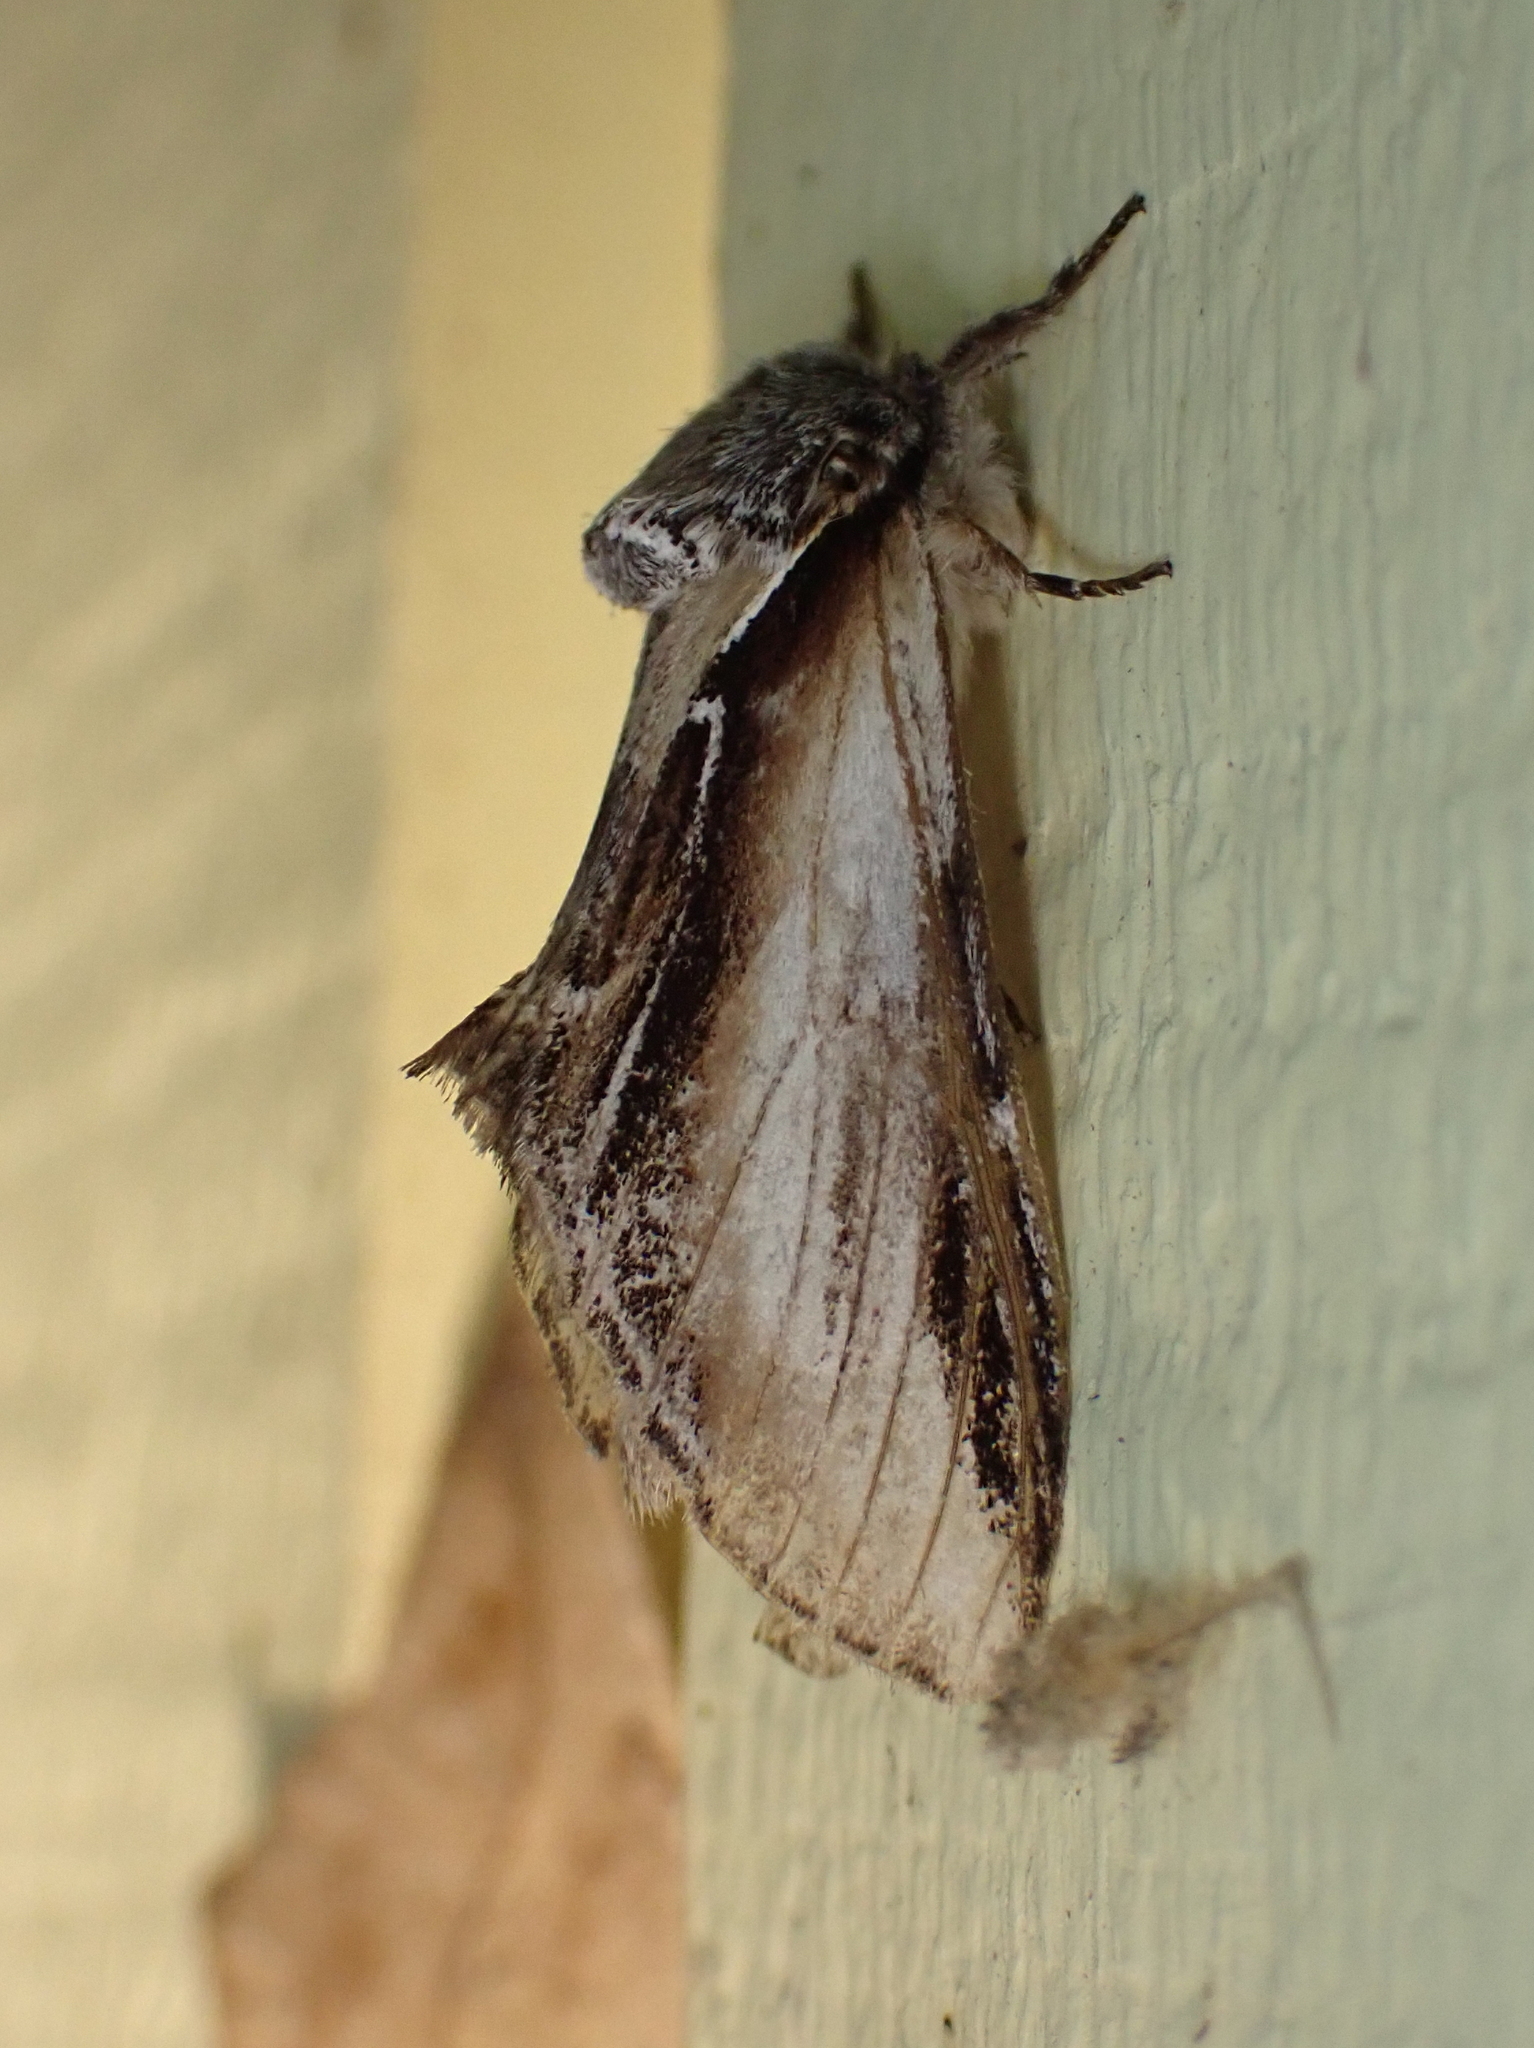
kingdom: Animalia
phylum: Arthropoda
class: Insecta
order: Lepidoptera
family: Notodontidae
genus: Pheosia
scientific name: Pheosia rimosa
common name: Black-rimmed prominent
